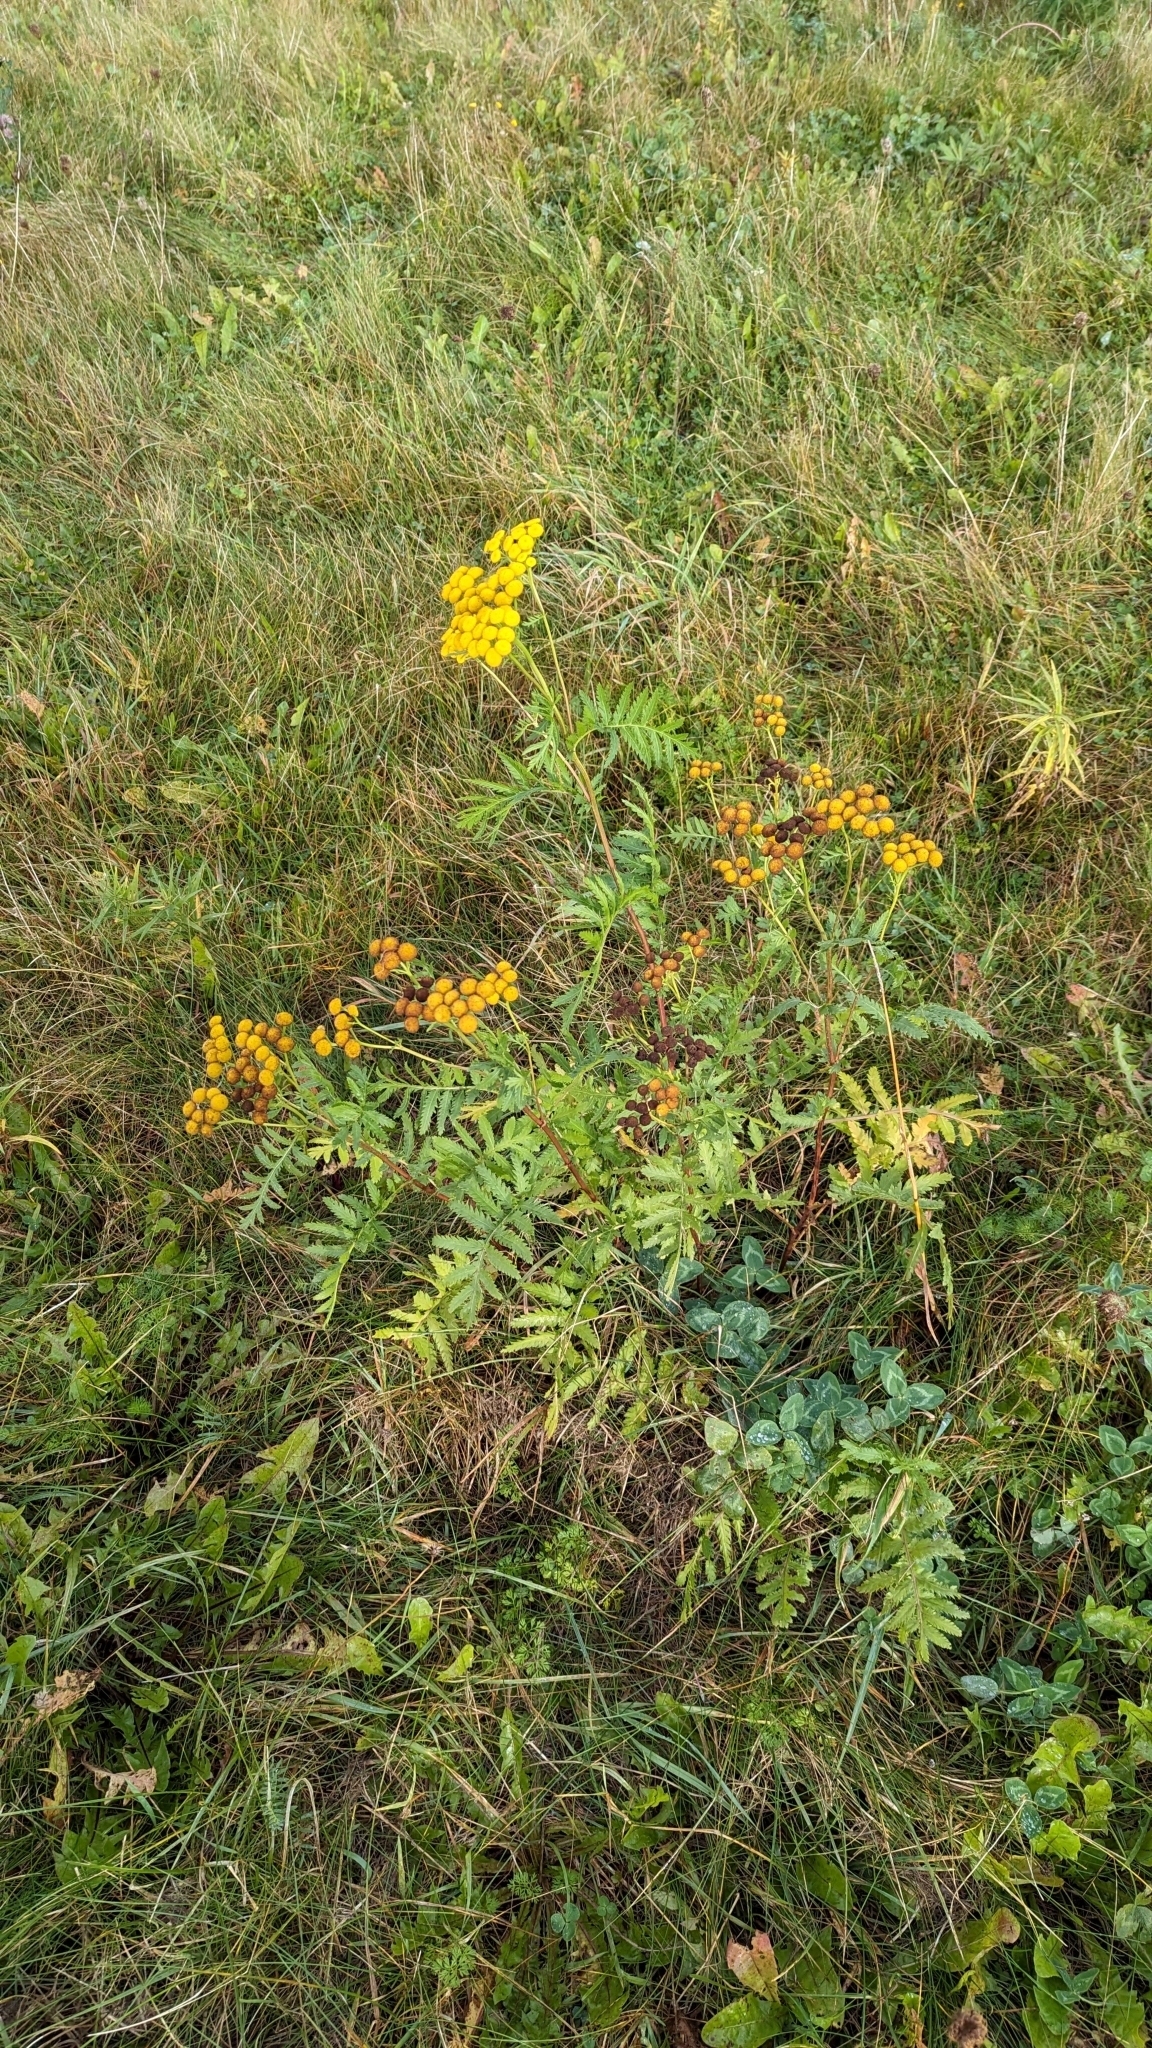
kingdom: Plantae
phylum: Tracheophyta
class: Magnoliopsida
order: Asterales
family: Asteraceae
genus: Tanacetum
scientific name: Tanacetum vulgare
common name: Common tansy
